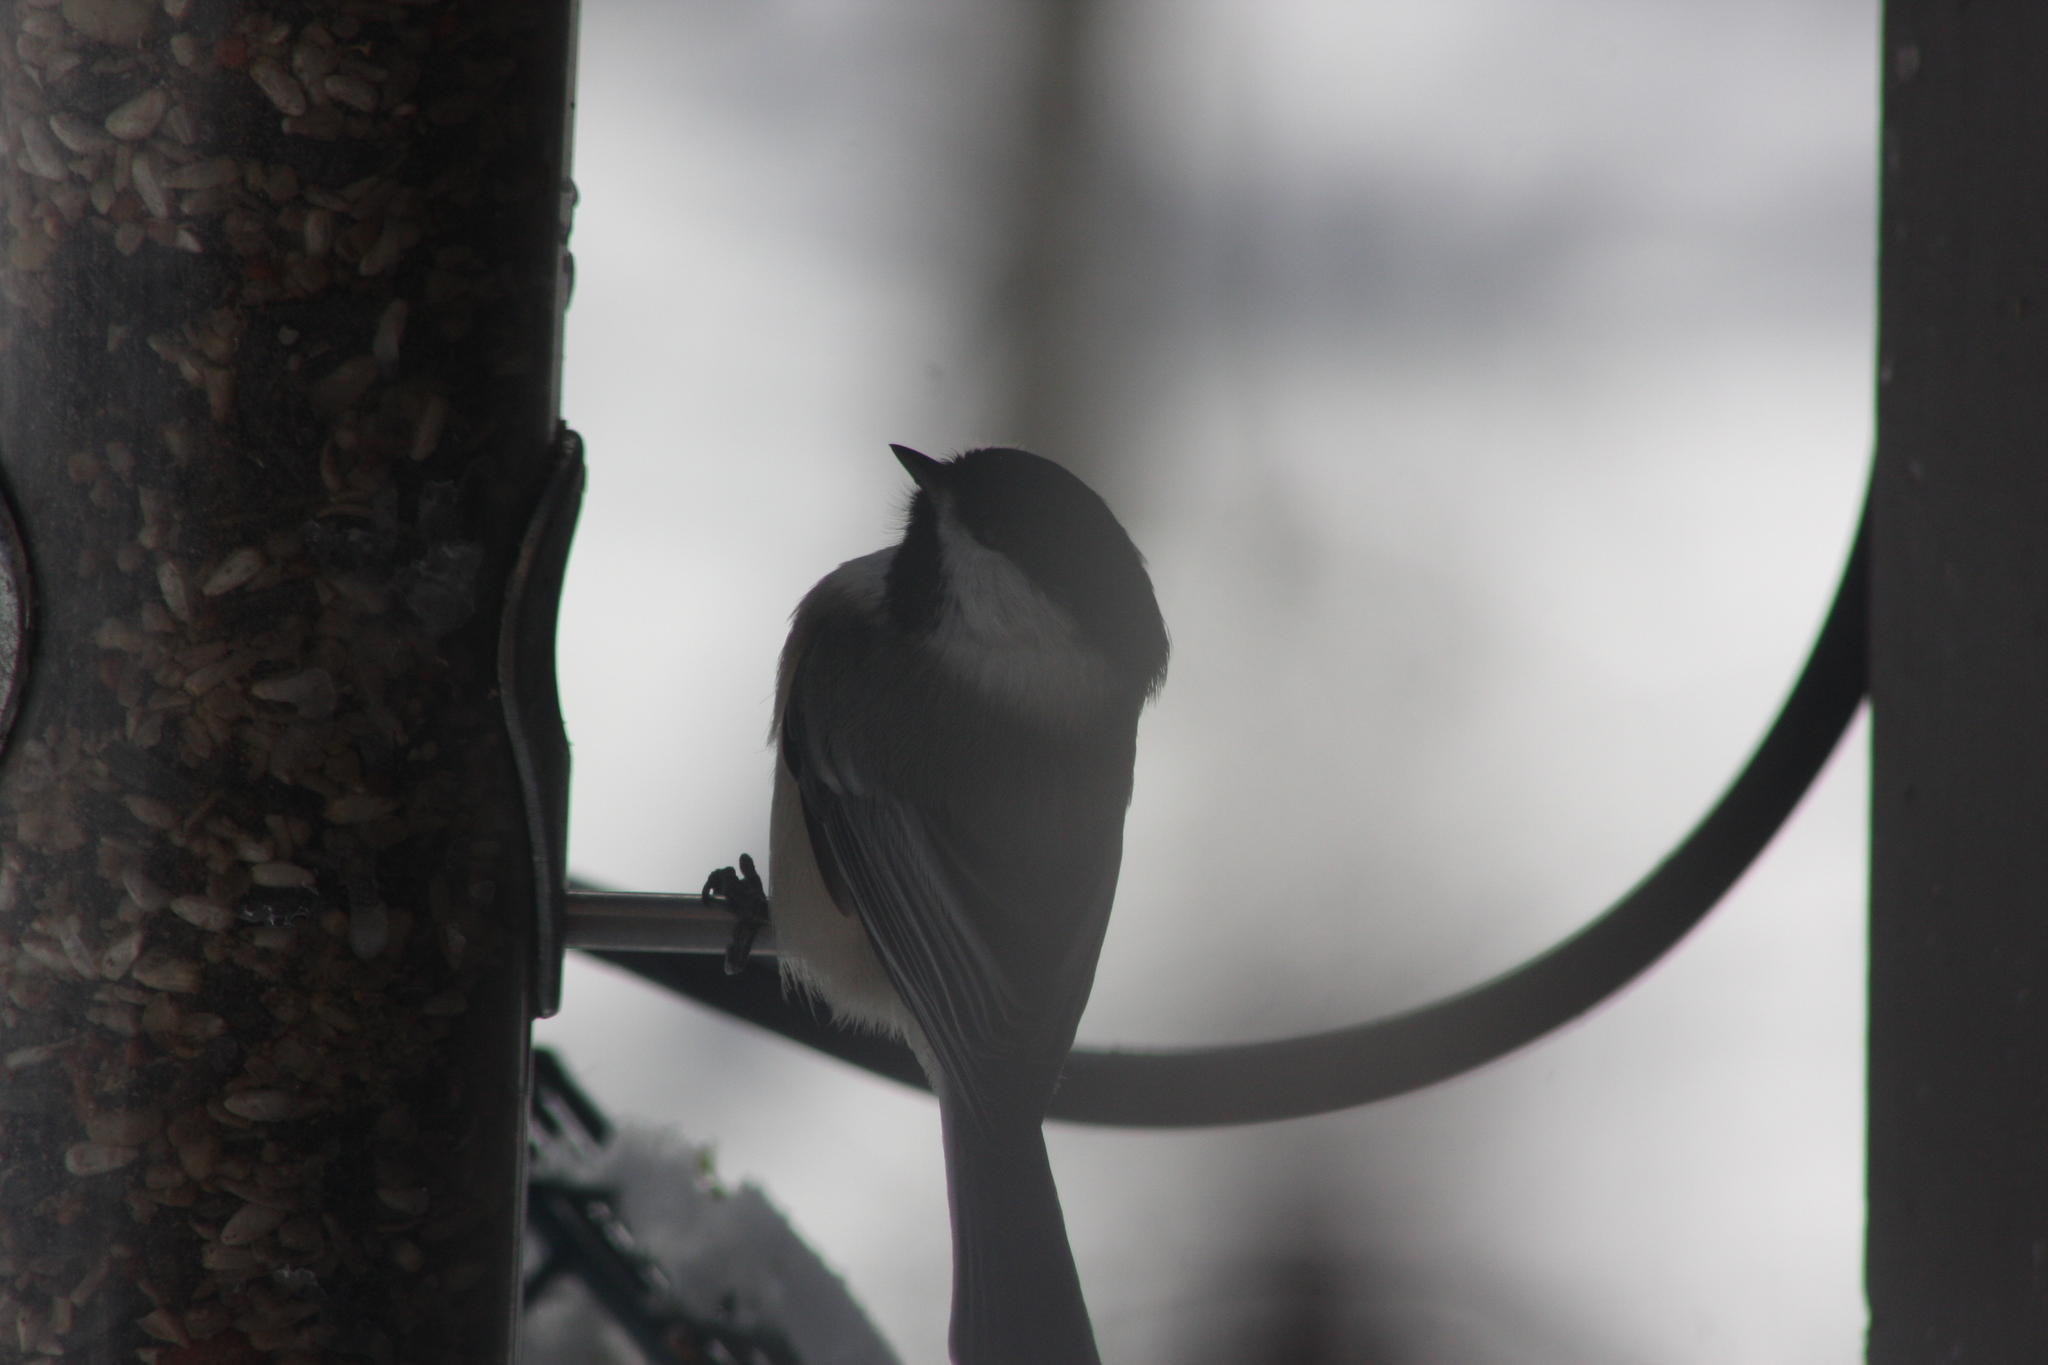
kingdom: Animalia
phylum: Chordata
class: Aves
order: Passeriformes
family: Paridae
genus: Poecile
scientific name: Poecile atricapillus
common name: Black-capped chickadee
